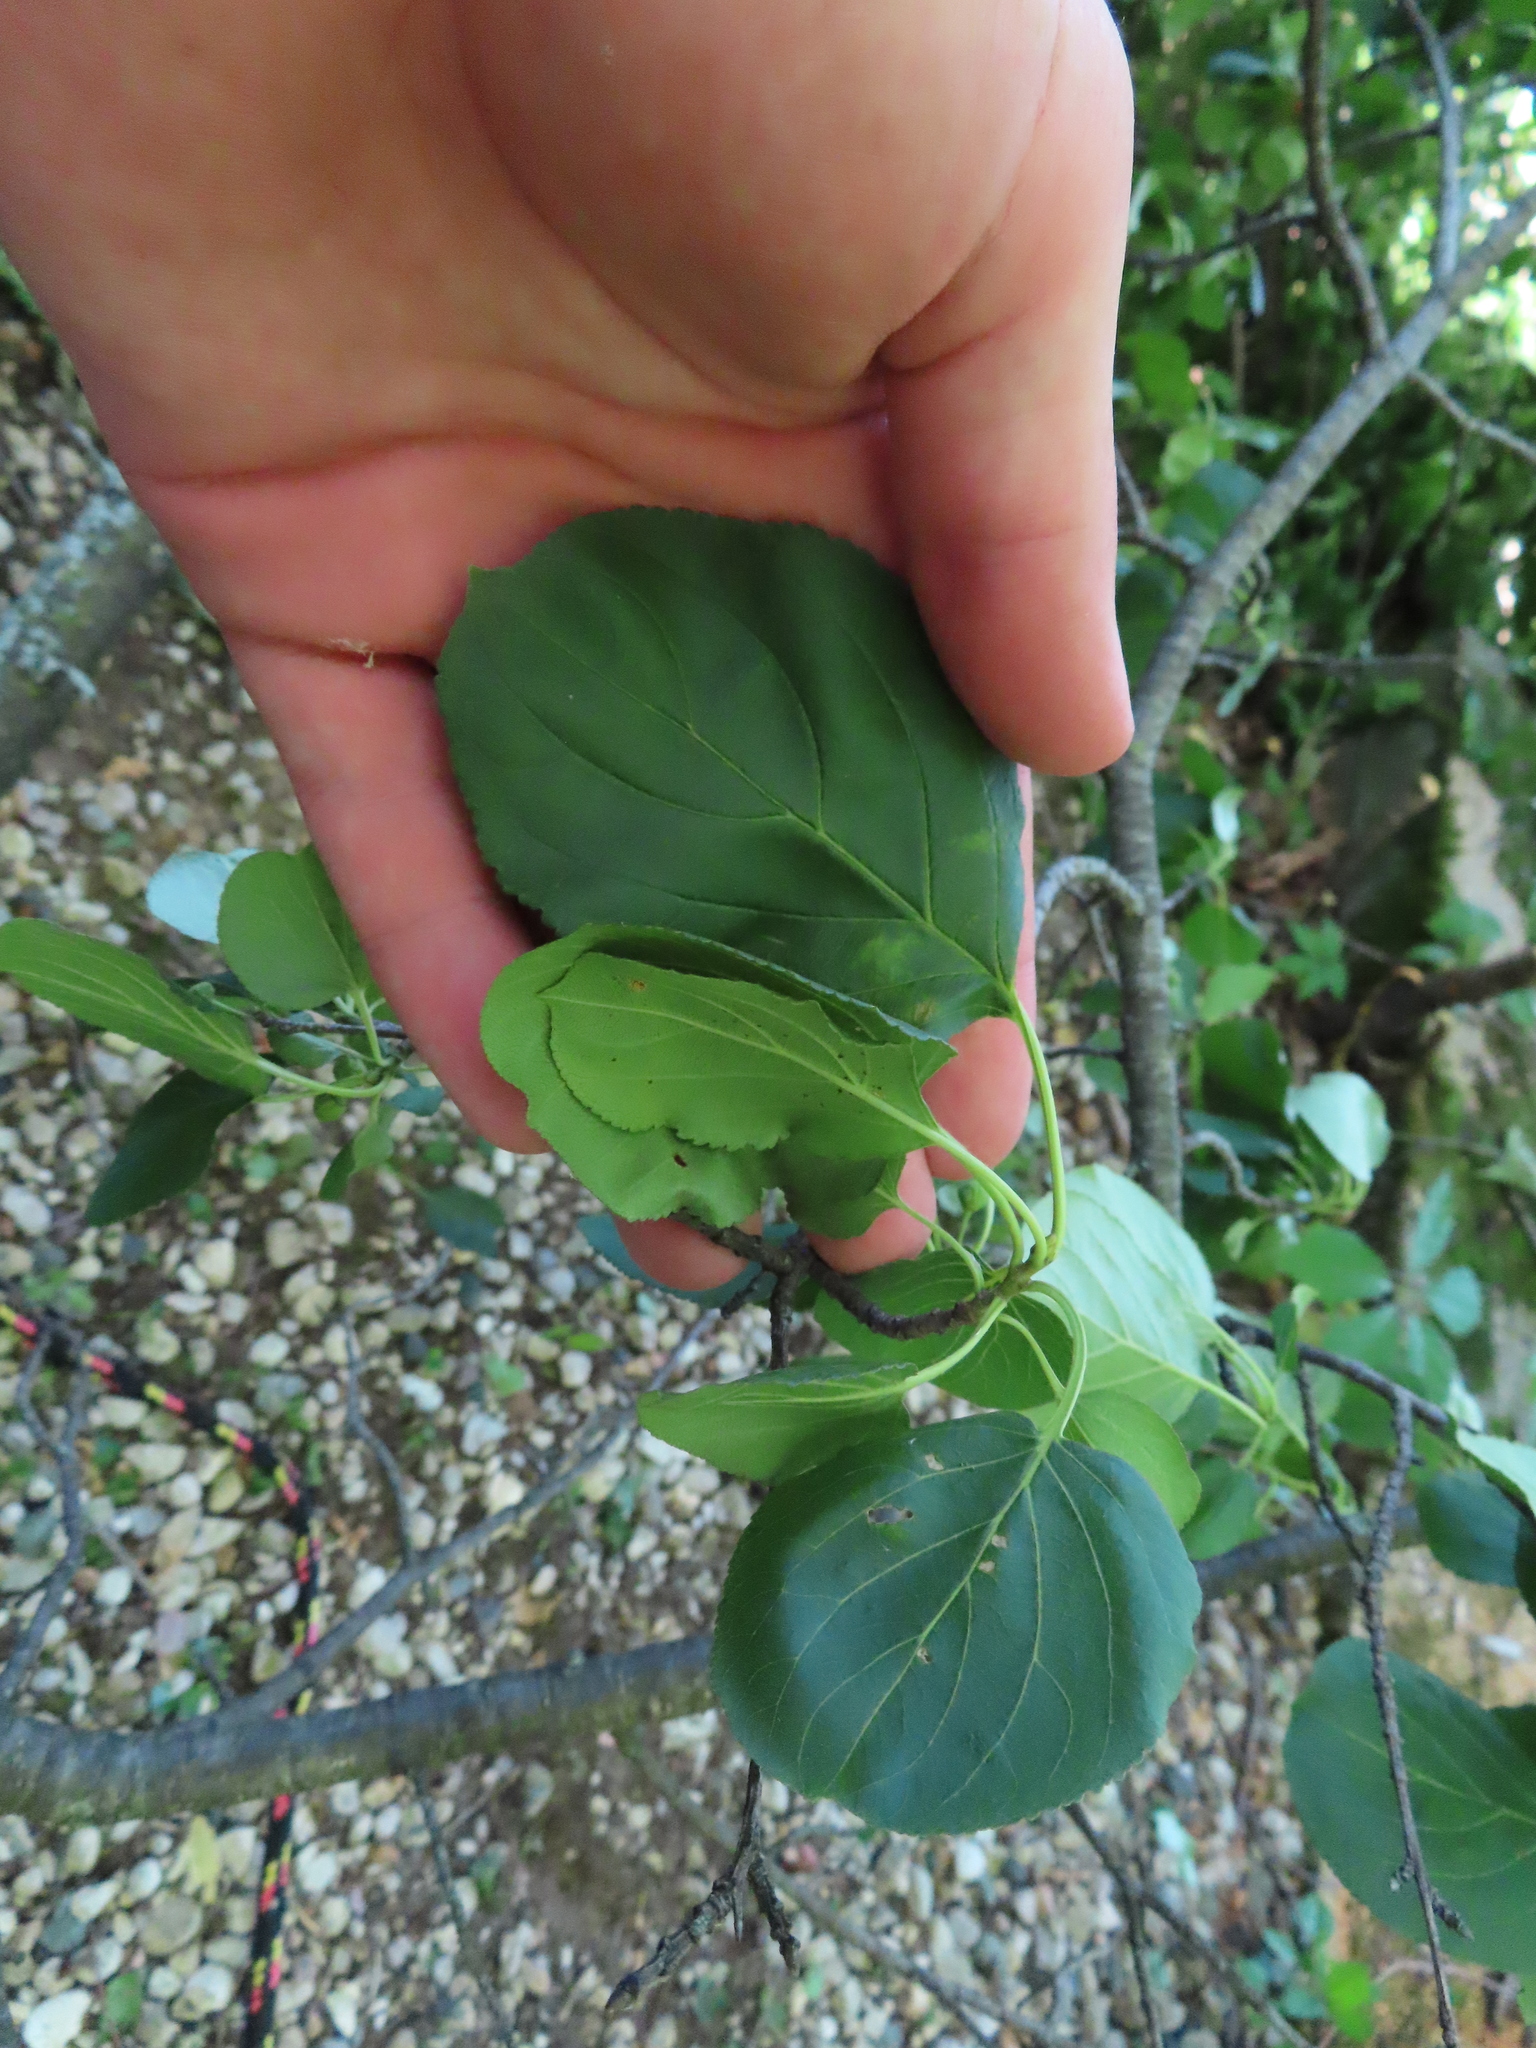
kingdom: Plantae
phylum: Tracheophyta
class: Magnoliopsida
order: Rosales
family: Rhamnaceae
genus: Rhamnus
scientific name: Rhamnus cathartica
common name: Common buckthorn
